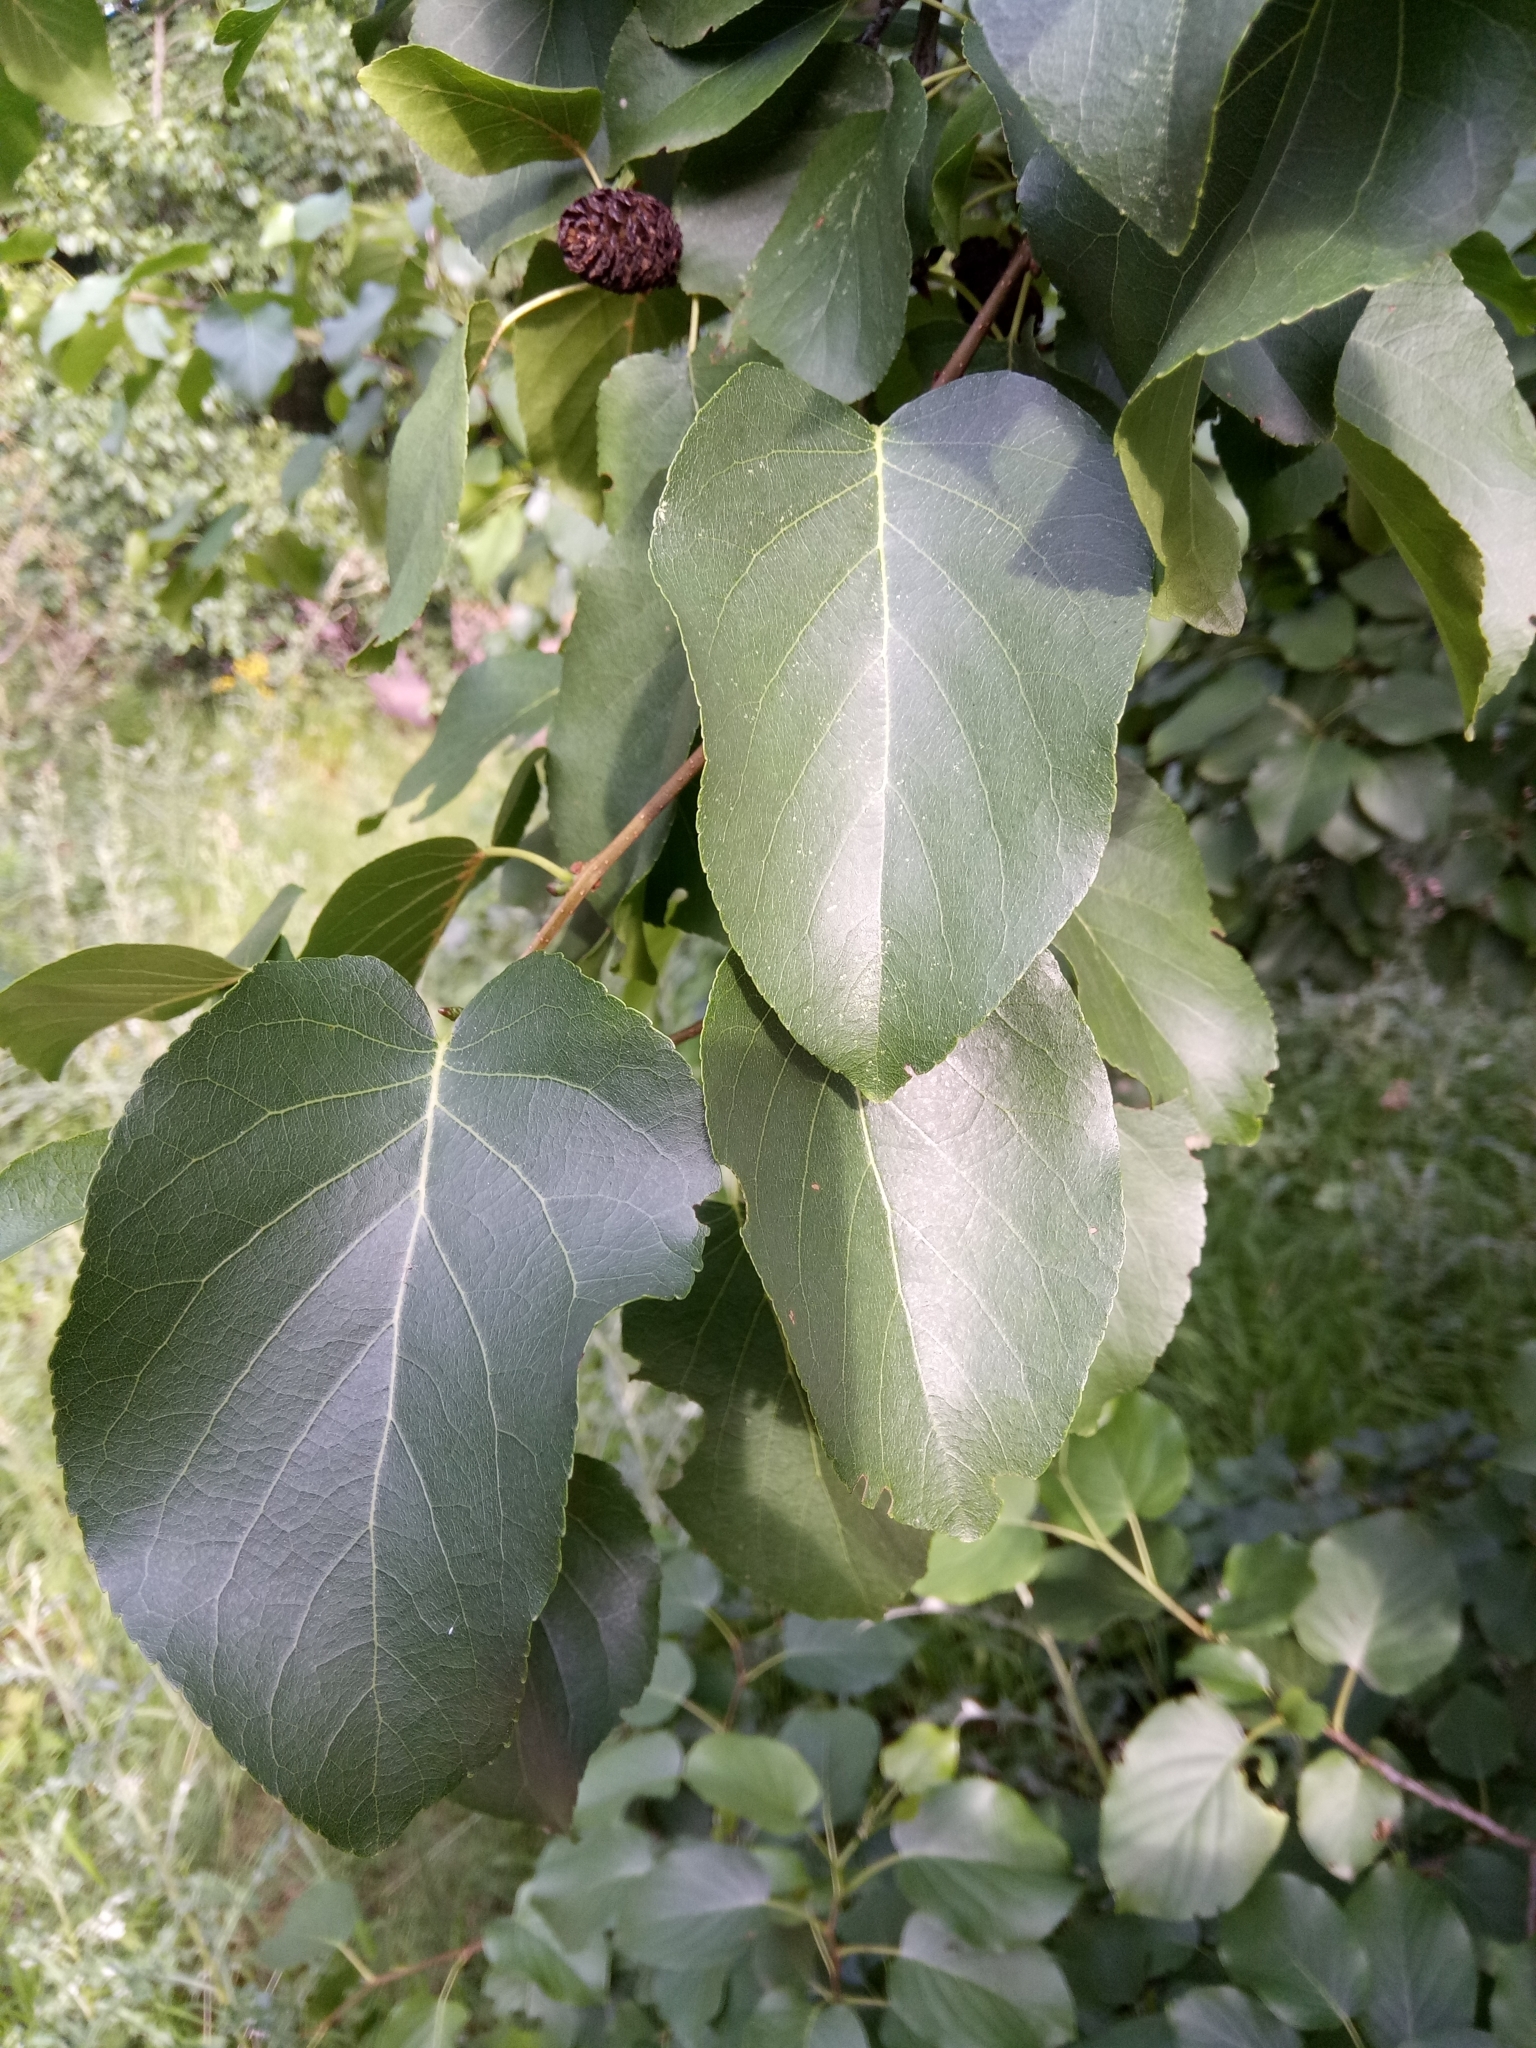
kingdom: Plantae
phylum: Tracheophyta
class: Magnoliopsida
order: Fagales
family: Betulaceae
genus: Alnus
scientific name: Alnus cordata
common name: Italian alder
